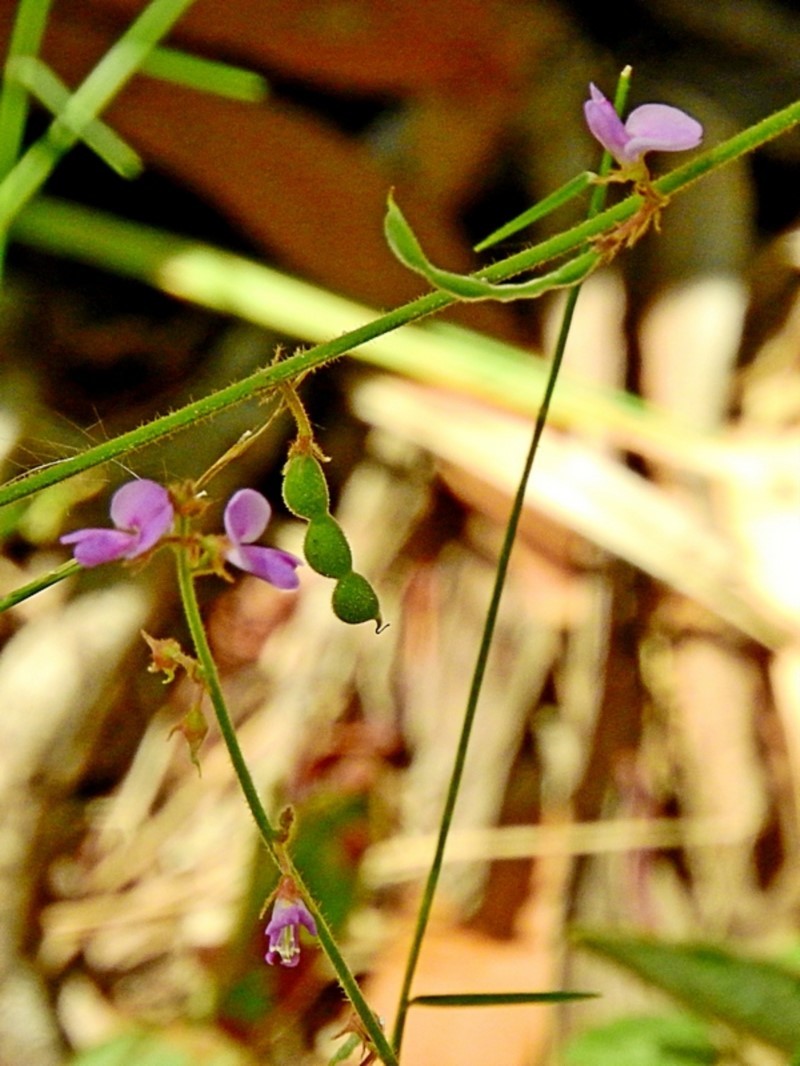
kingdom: Plantae
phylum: Tracheophyta
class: Magnoliopsida
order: Fabales
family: Fabaceae
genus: Maekawaea
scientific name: Maekawaea rhytidophylla
